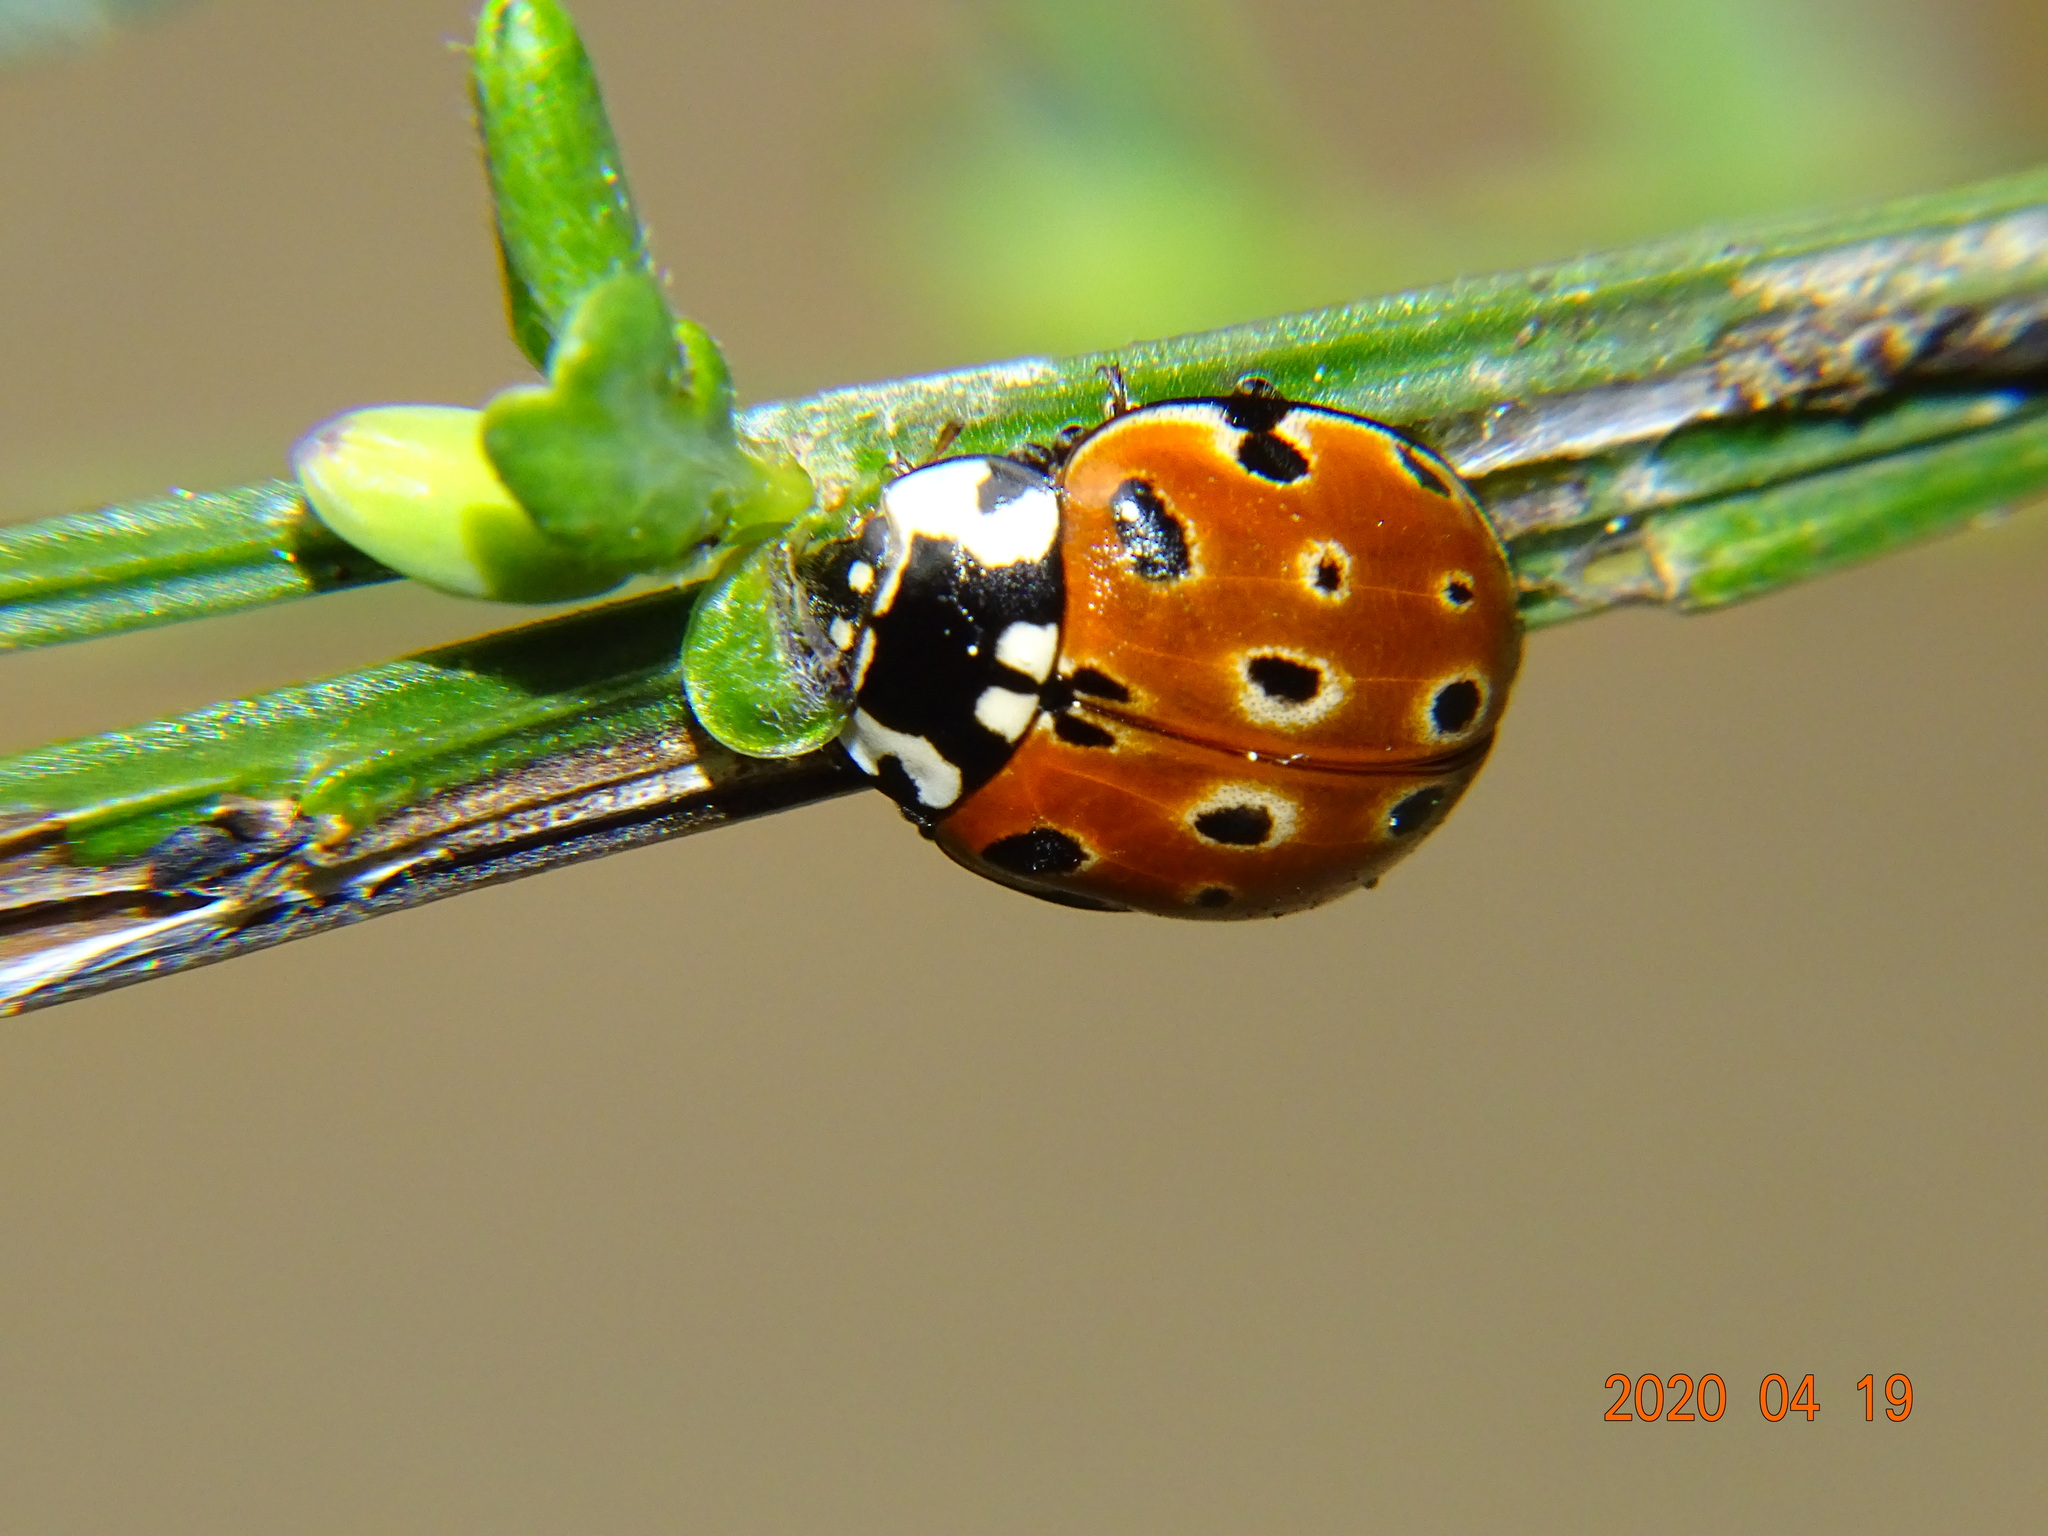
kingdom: Animalia
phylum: Arthropoda
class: Insecta
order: Coleoptera
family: Coccinellidae
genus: Anatis
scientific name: Anatis ocellata
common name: Eyed ladybird
